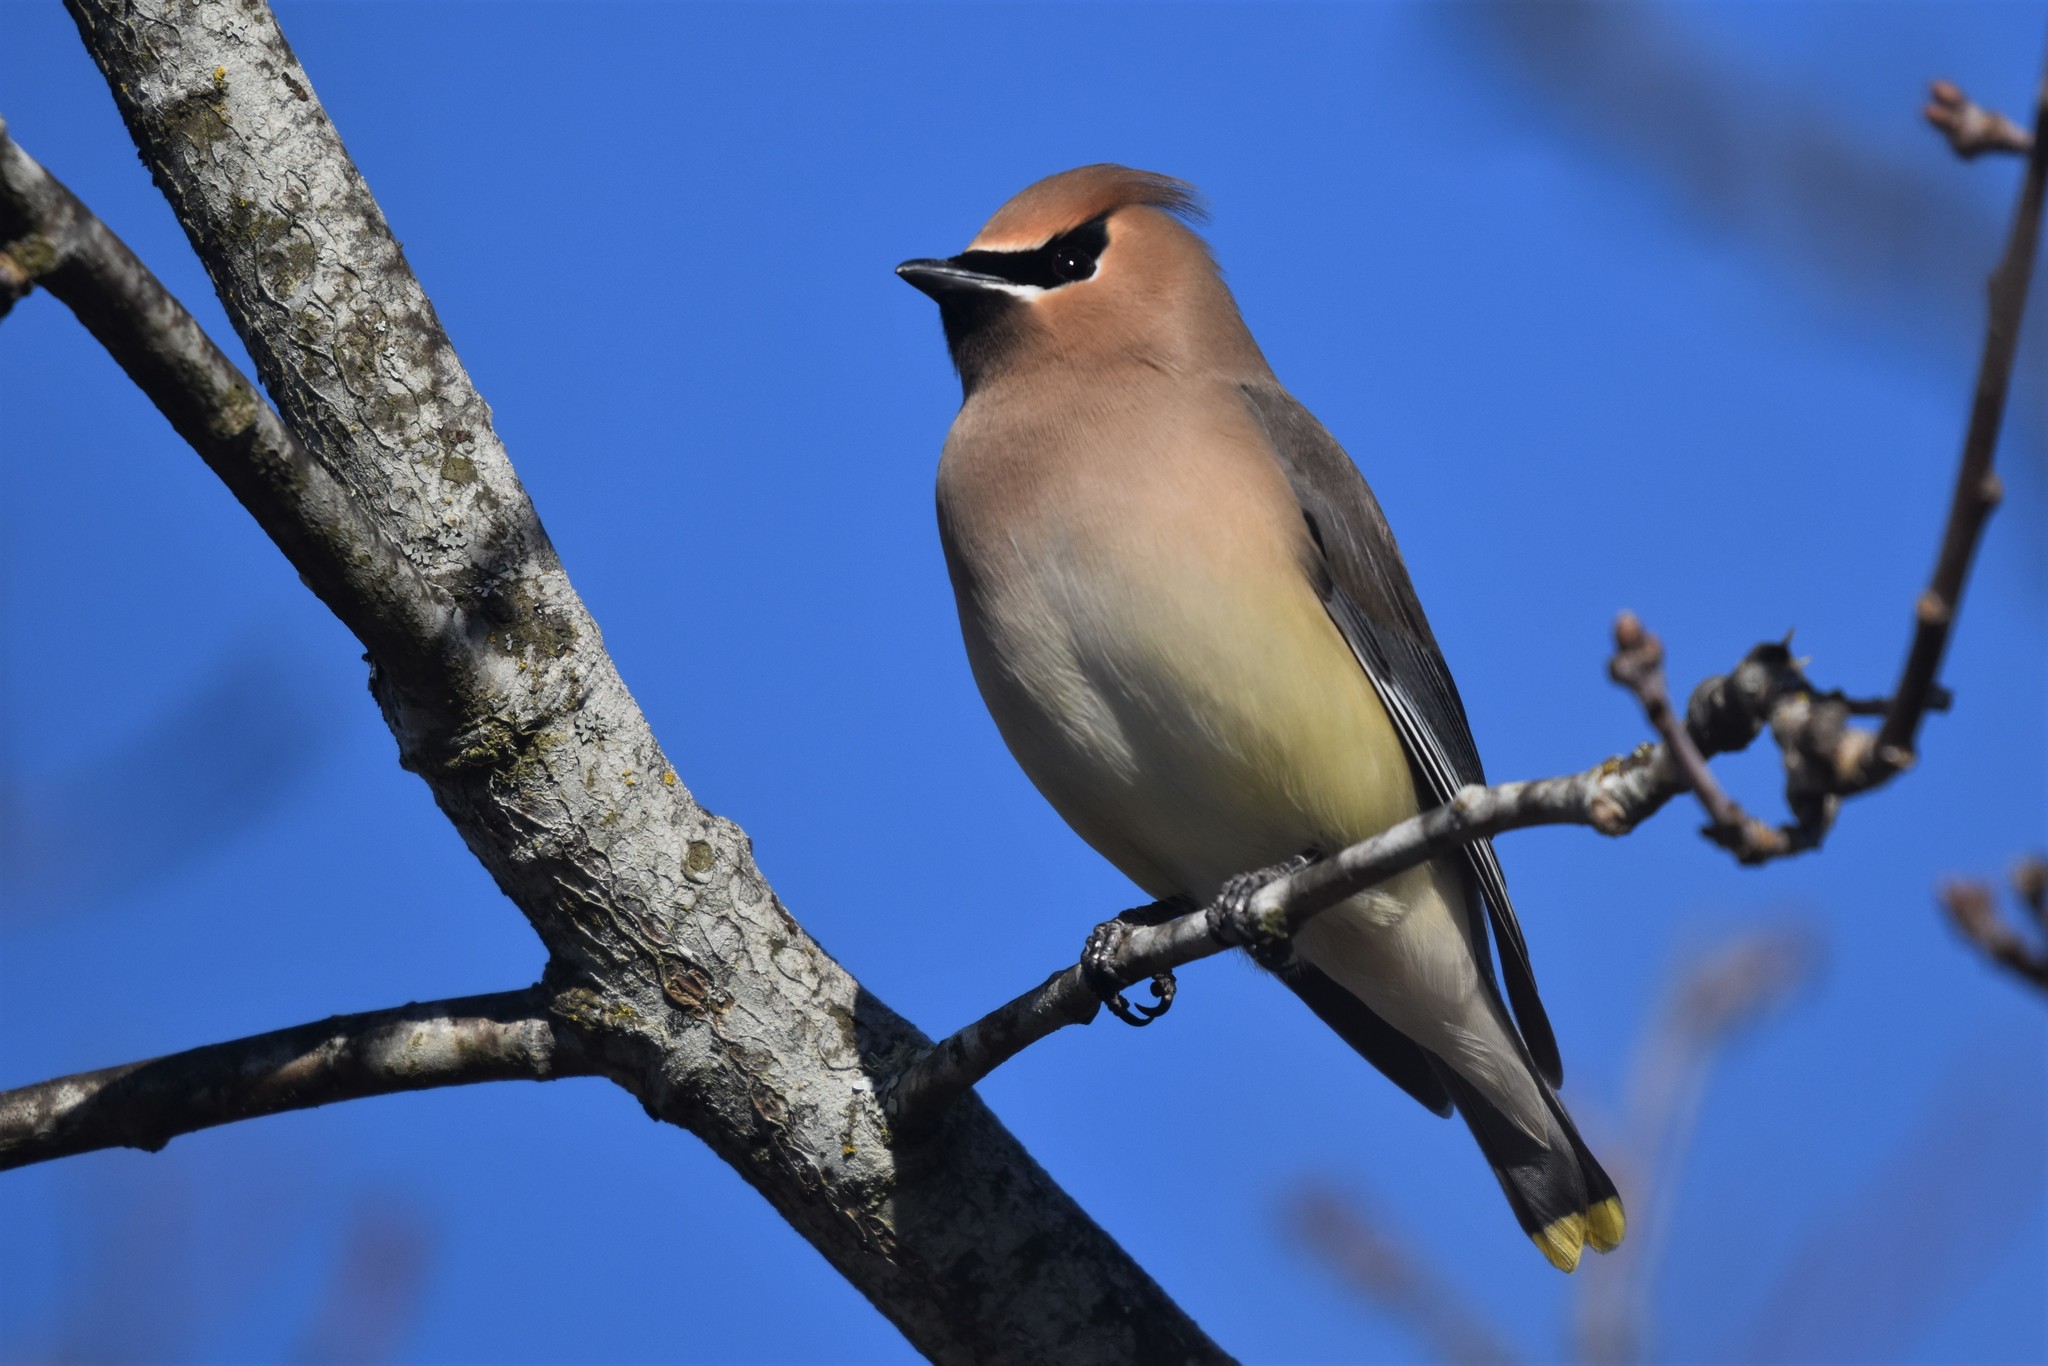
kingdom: Animalia
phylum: Chordata
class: Aves
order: Passeriformes
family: Bombycillidae
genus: Bombycilla
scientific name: Bombycilla cedrorum
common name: Cedar waxwing
